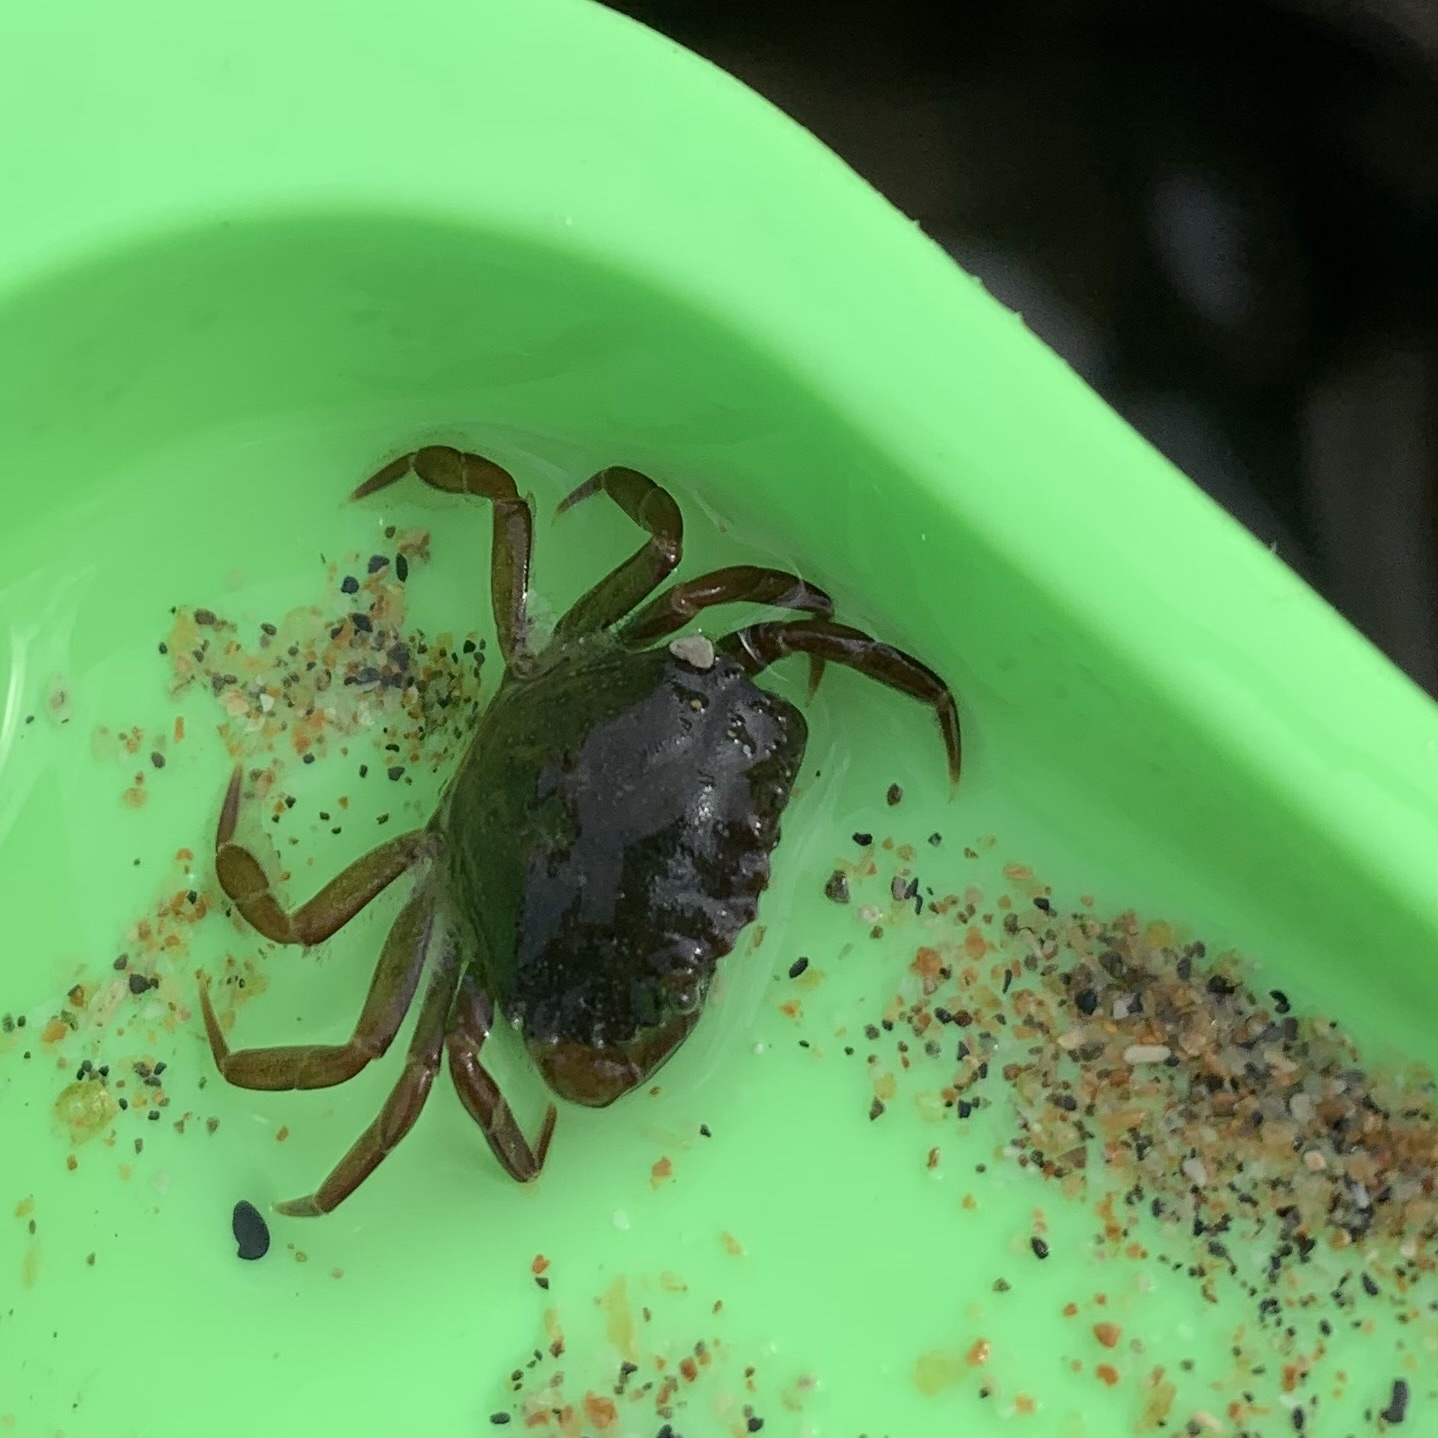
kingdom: Animalia
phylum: Arthropoda
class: Malacostraca
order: Decapoda
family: Carcinidae
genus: Carcinus
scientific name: Carcinus maenas
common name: European green crab
